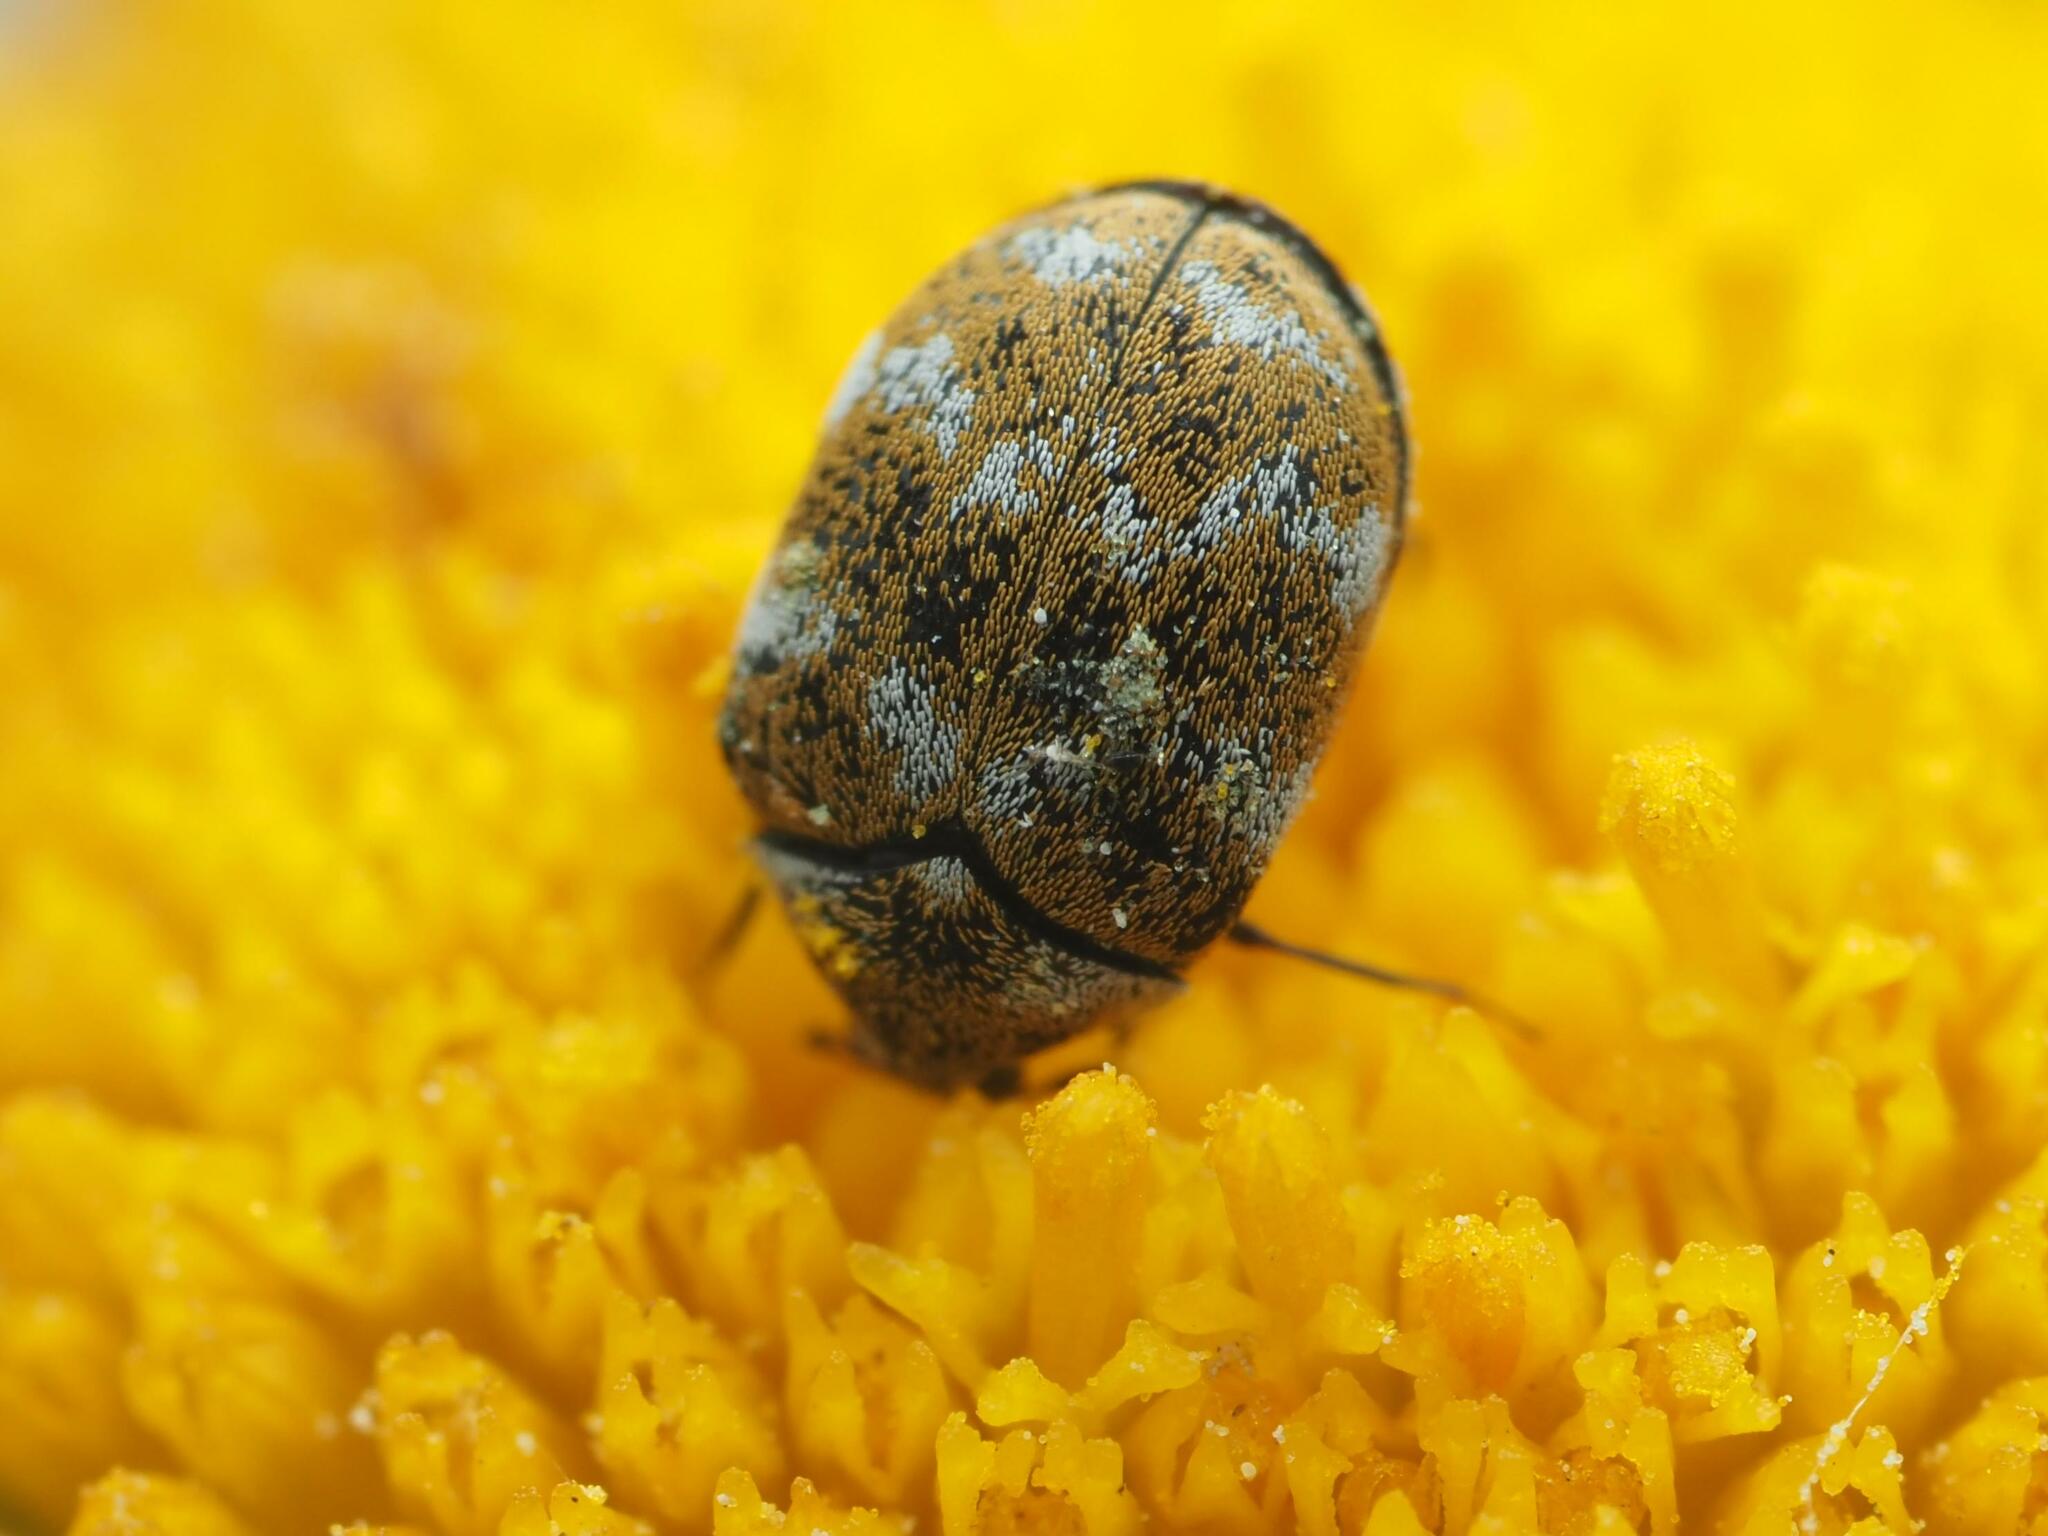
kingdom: Animalia
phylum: Arthropoda
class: Insecta
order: Coleoptera
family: Dermestidae
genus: Anthrenus
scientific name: Anthrenus verbasci
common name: Varied carpet beetle
